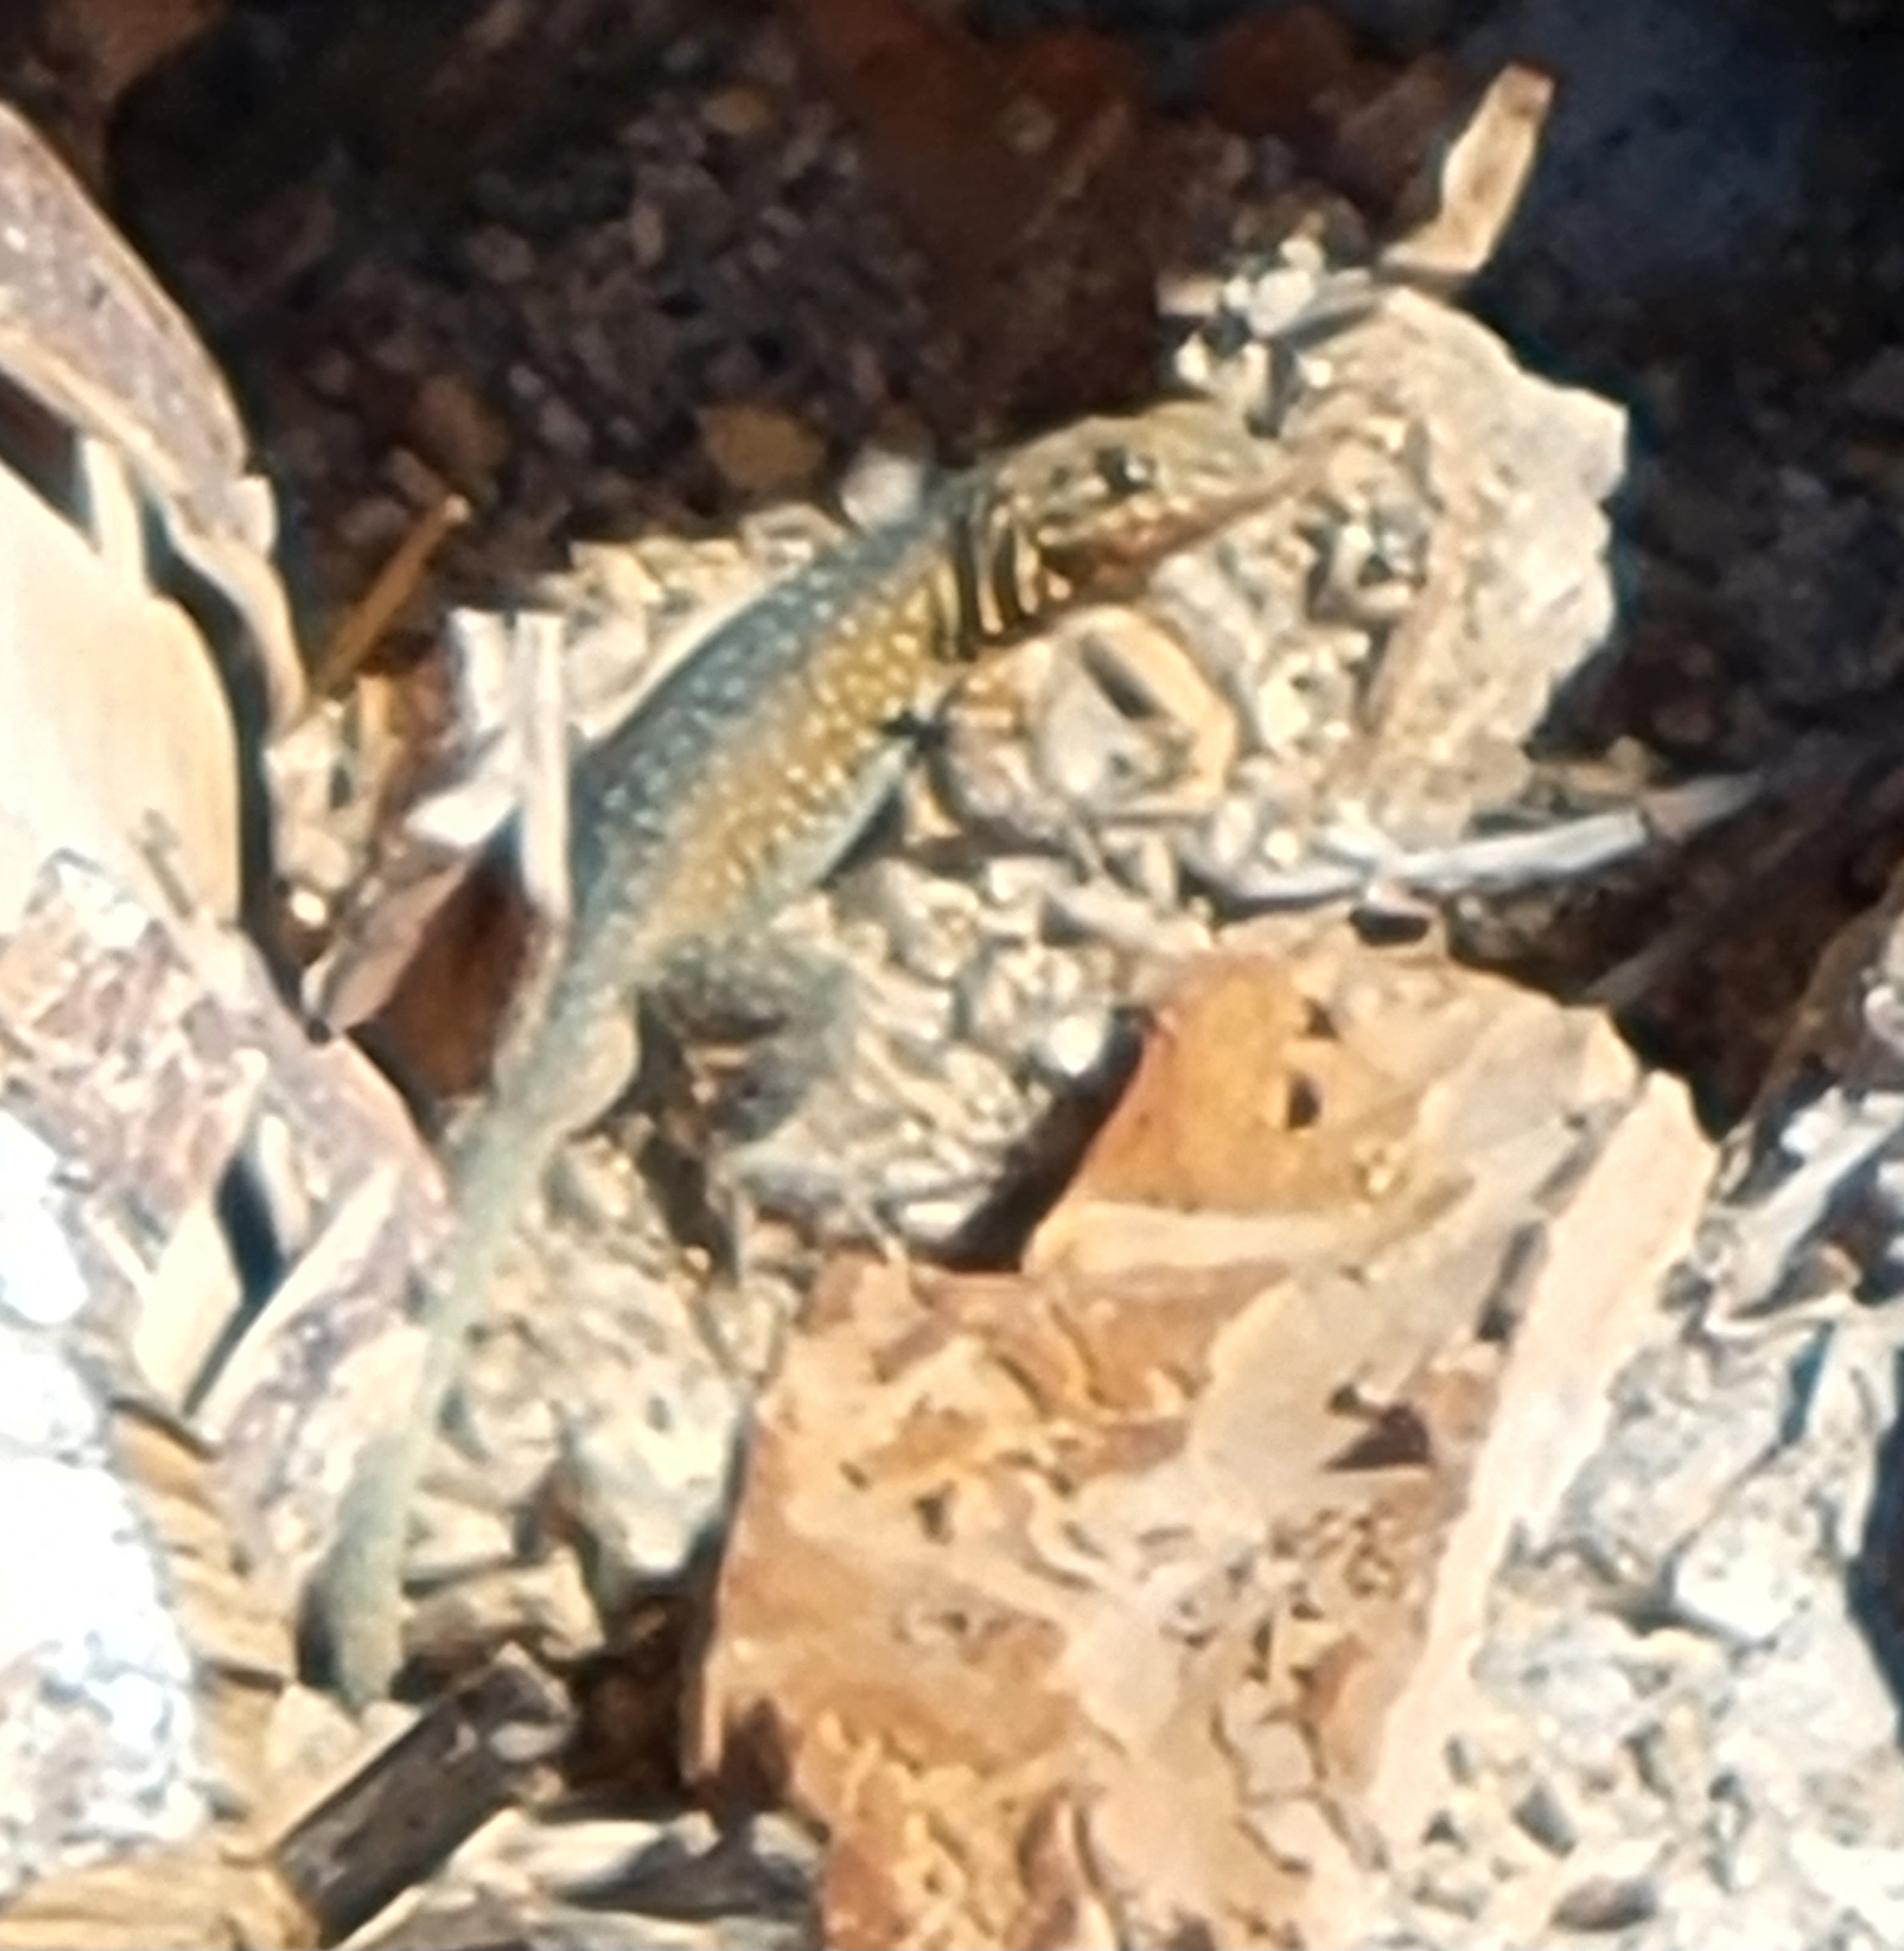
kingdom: Animalia
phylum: Chordata
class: Squamata
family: Phrynosomatidae
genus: Uta
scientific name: Uta stansburiana
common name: Side-blotched lizard
